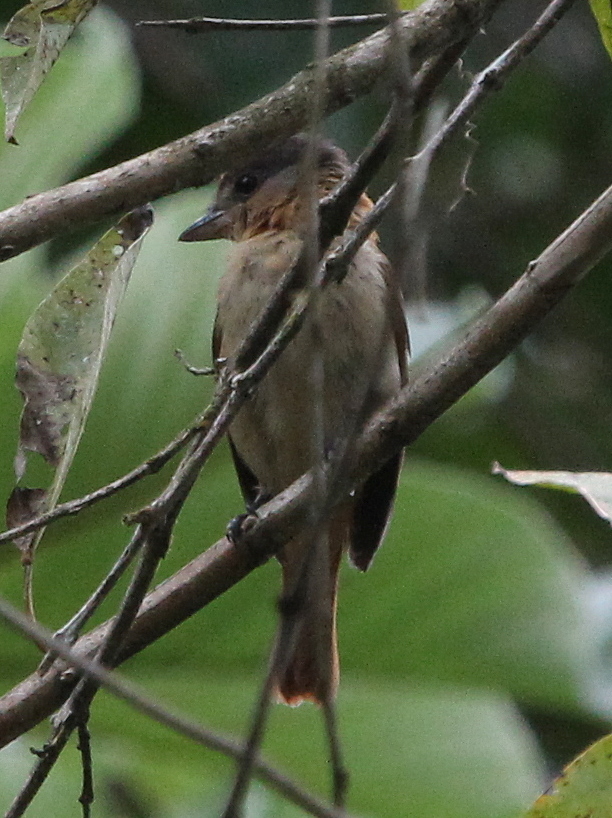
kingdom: Animalia
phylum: Chordata
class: Aves
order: Passeriformes
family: Cotingidae
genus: Pachyramphus
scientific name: Pachyramphus validus
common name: Crested becard
